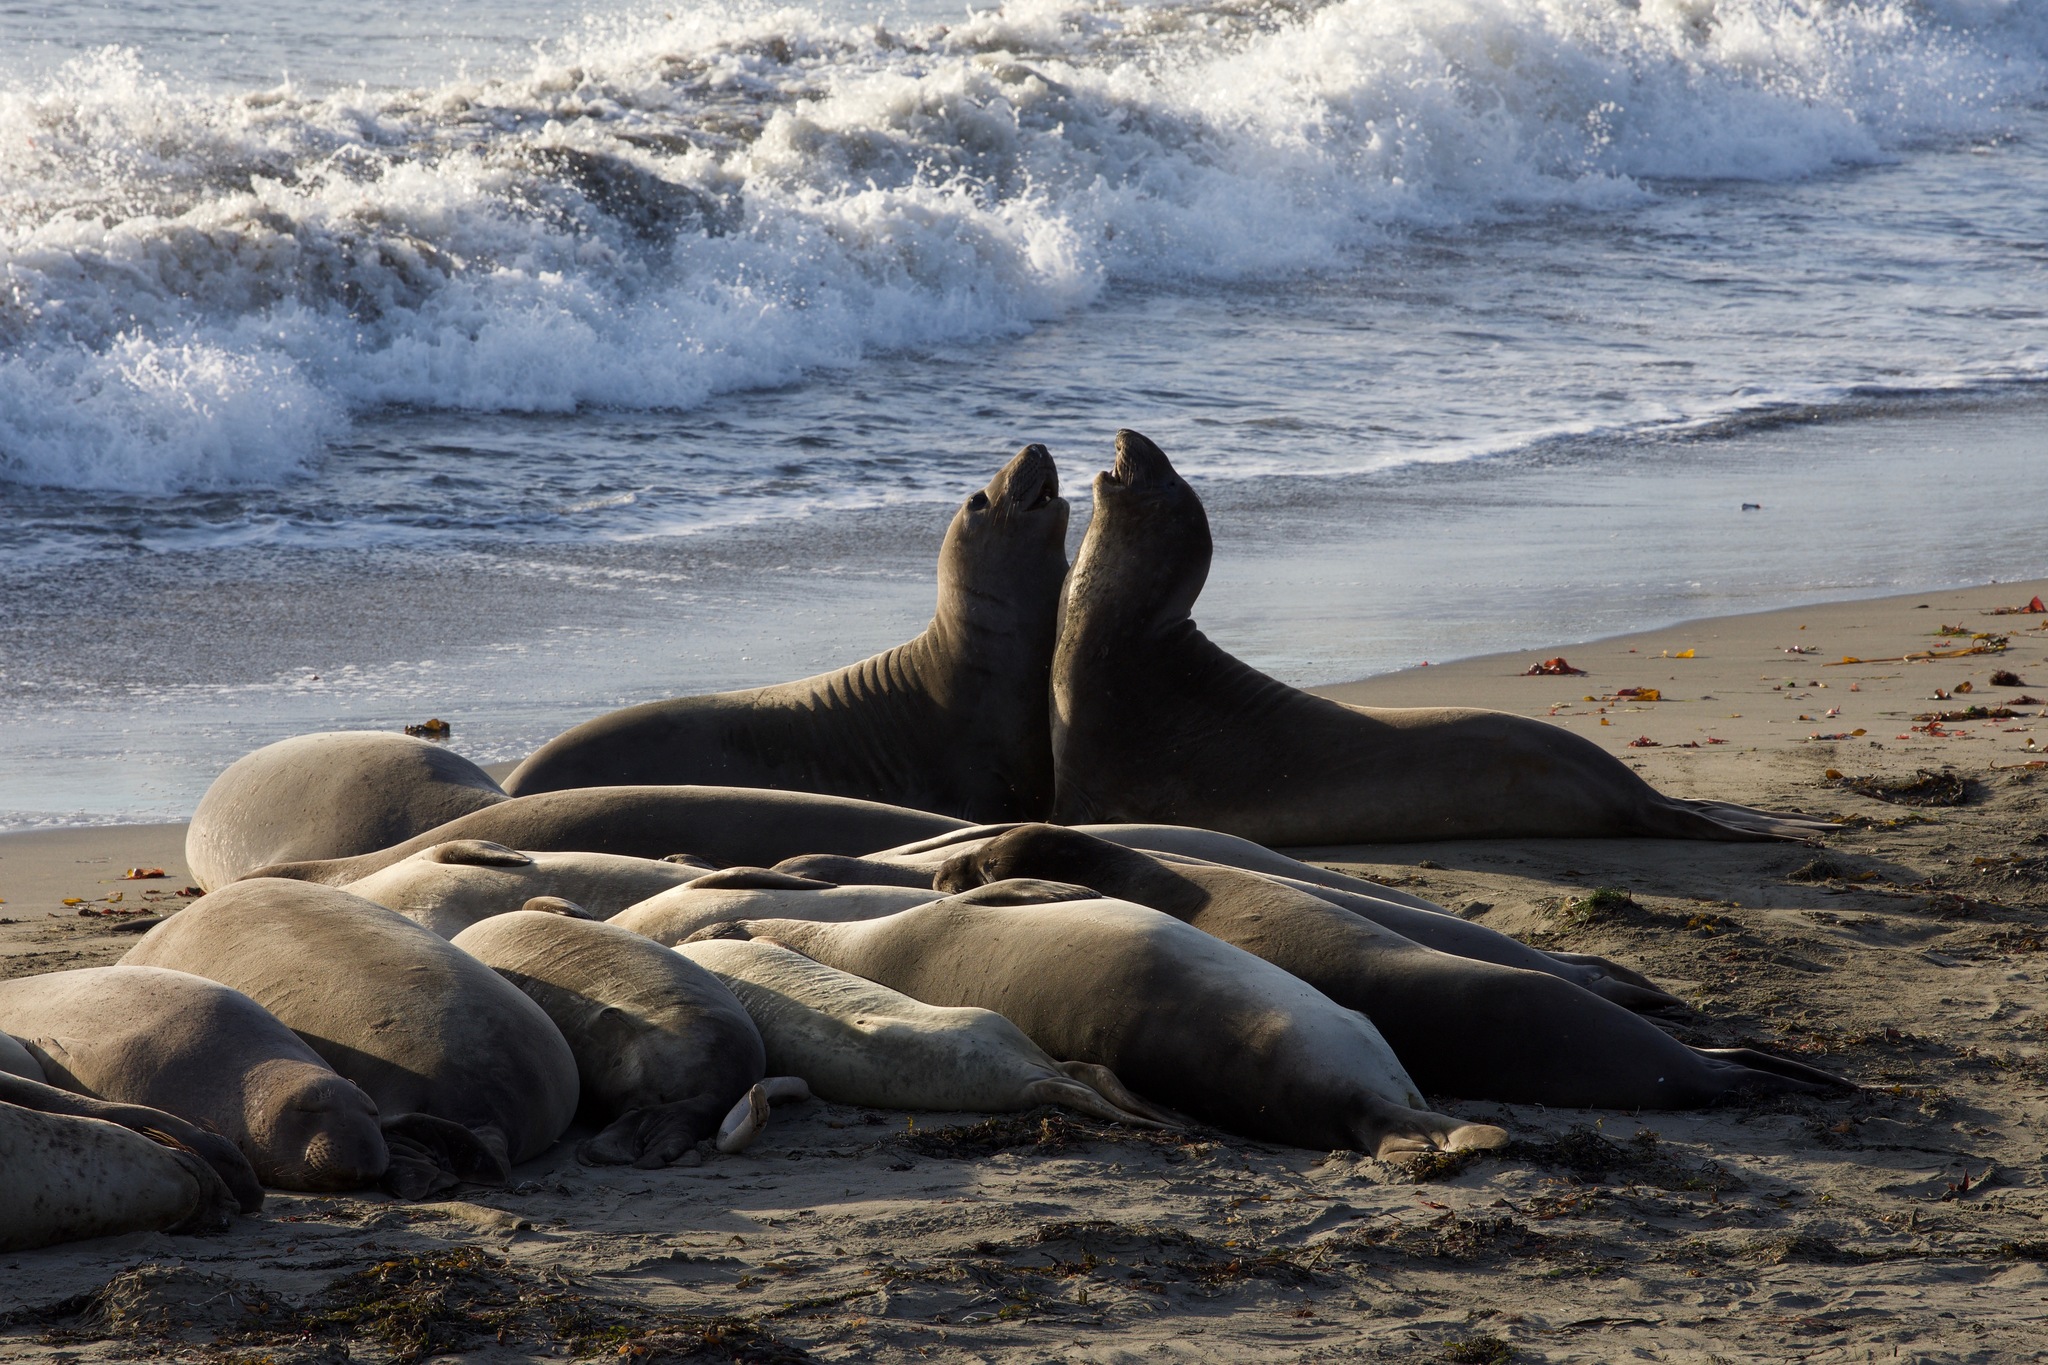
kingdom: Animalia
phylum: Chordata
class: Mammalia
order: Carnivora
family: Phocidae
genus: Mirounga
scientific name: Mirounga angustirostris
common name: Northern elephant seal
